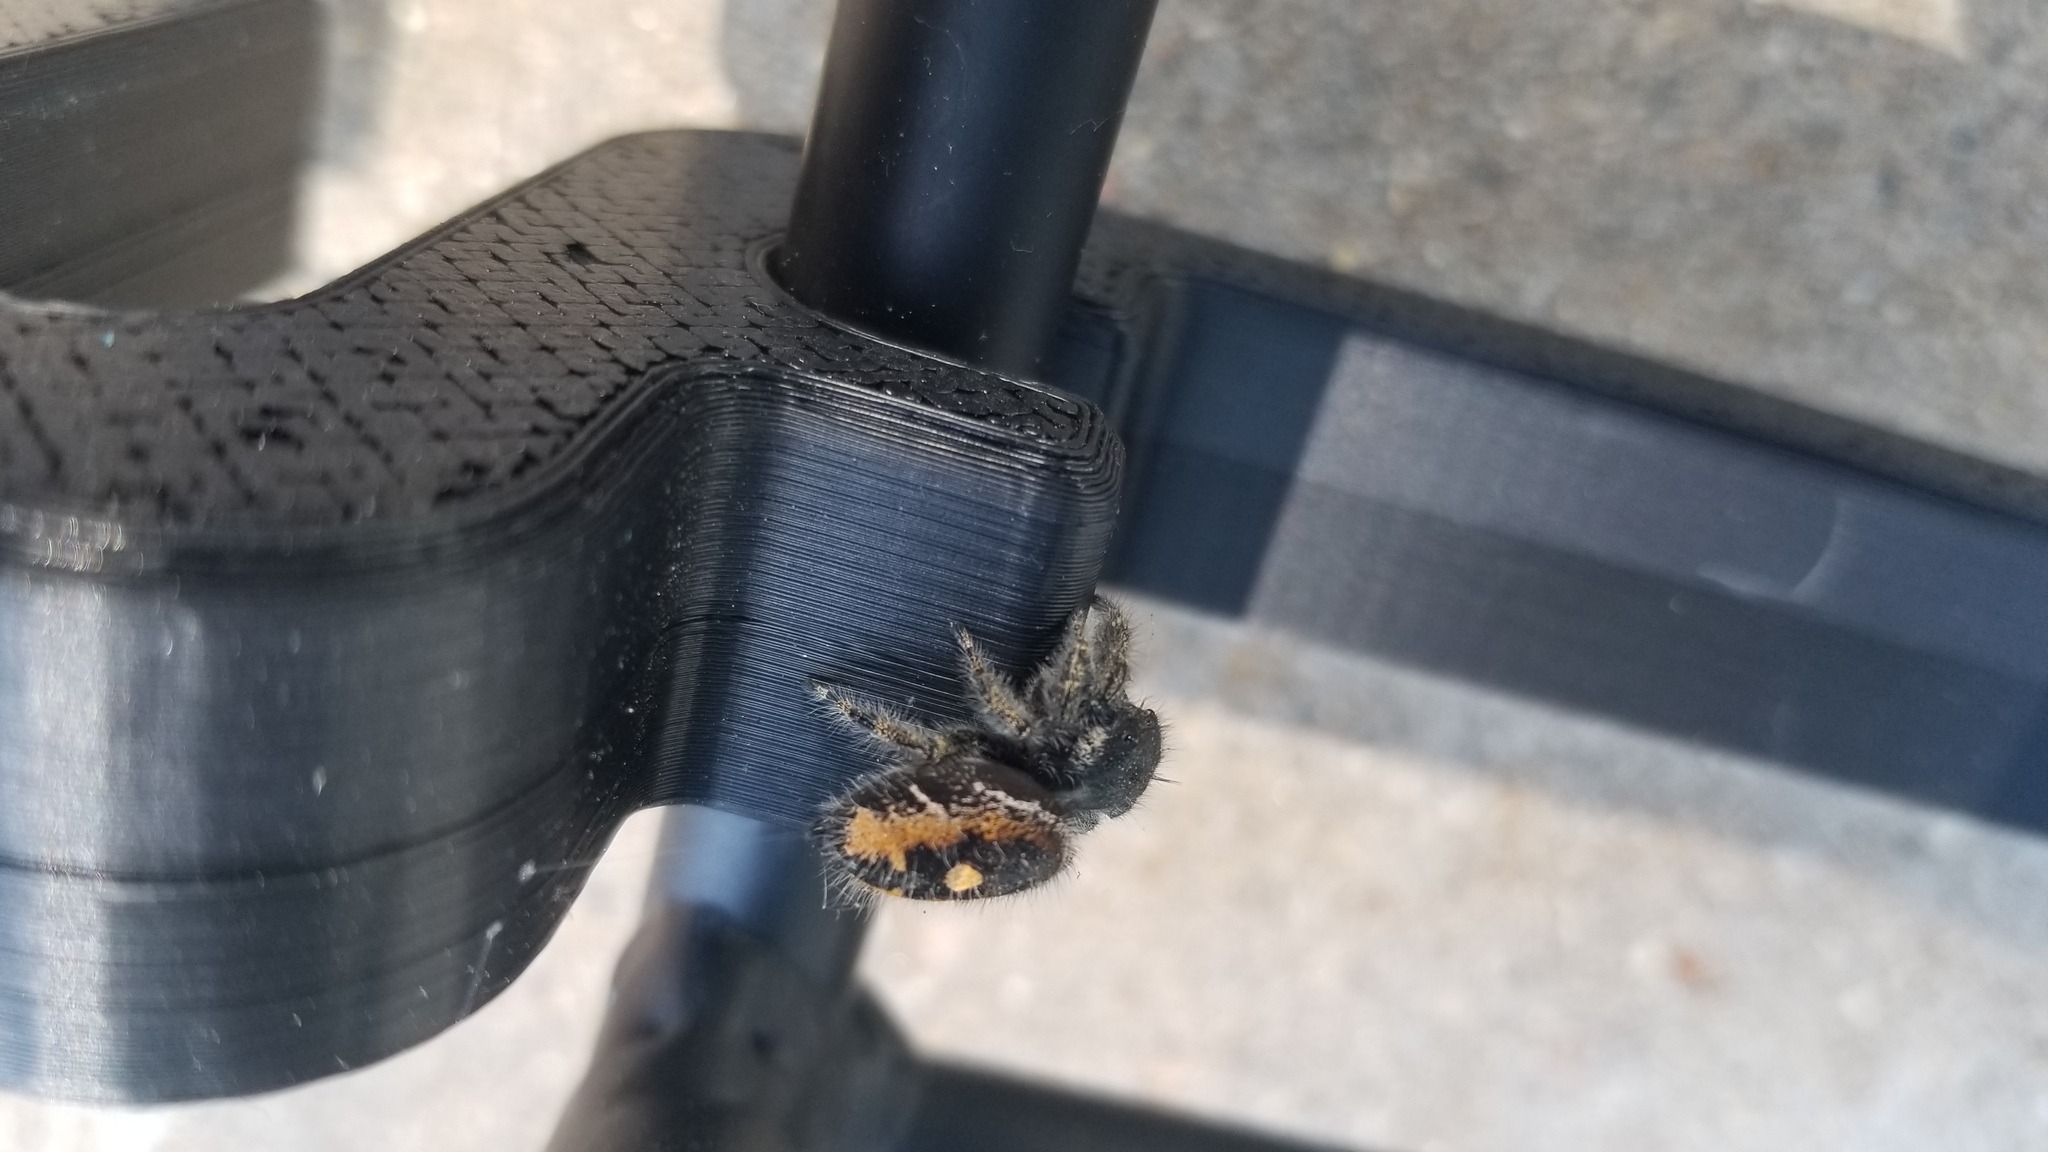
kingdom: Animalia
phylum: Arthropoda
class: Arachnida
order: Araneae
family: Salticidae
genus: Phidippus
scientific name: Phidippus audax
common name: Bold jumper
